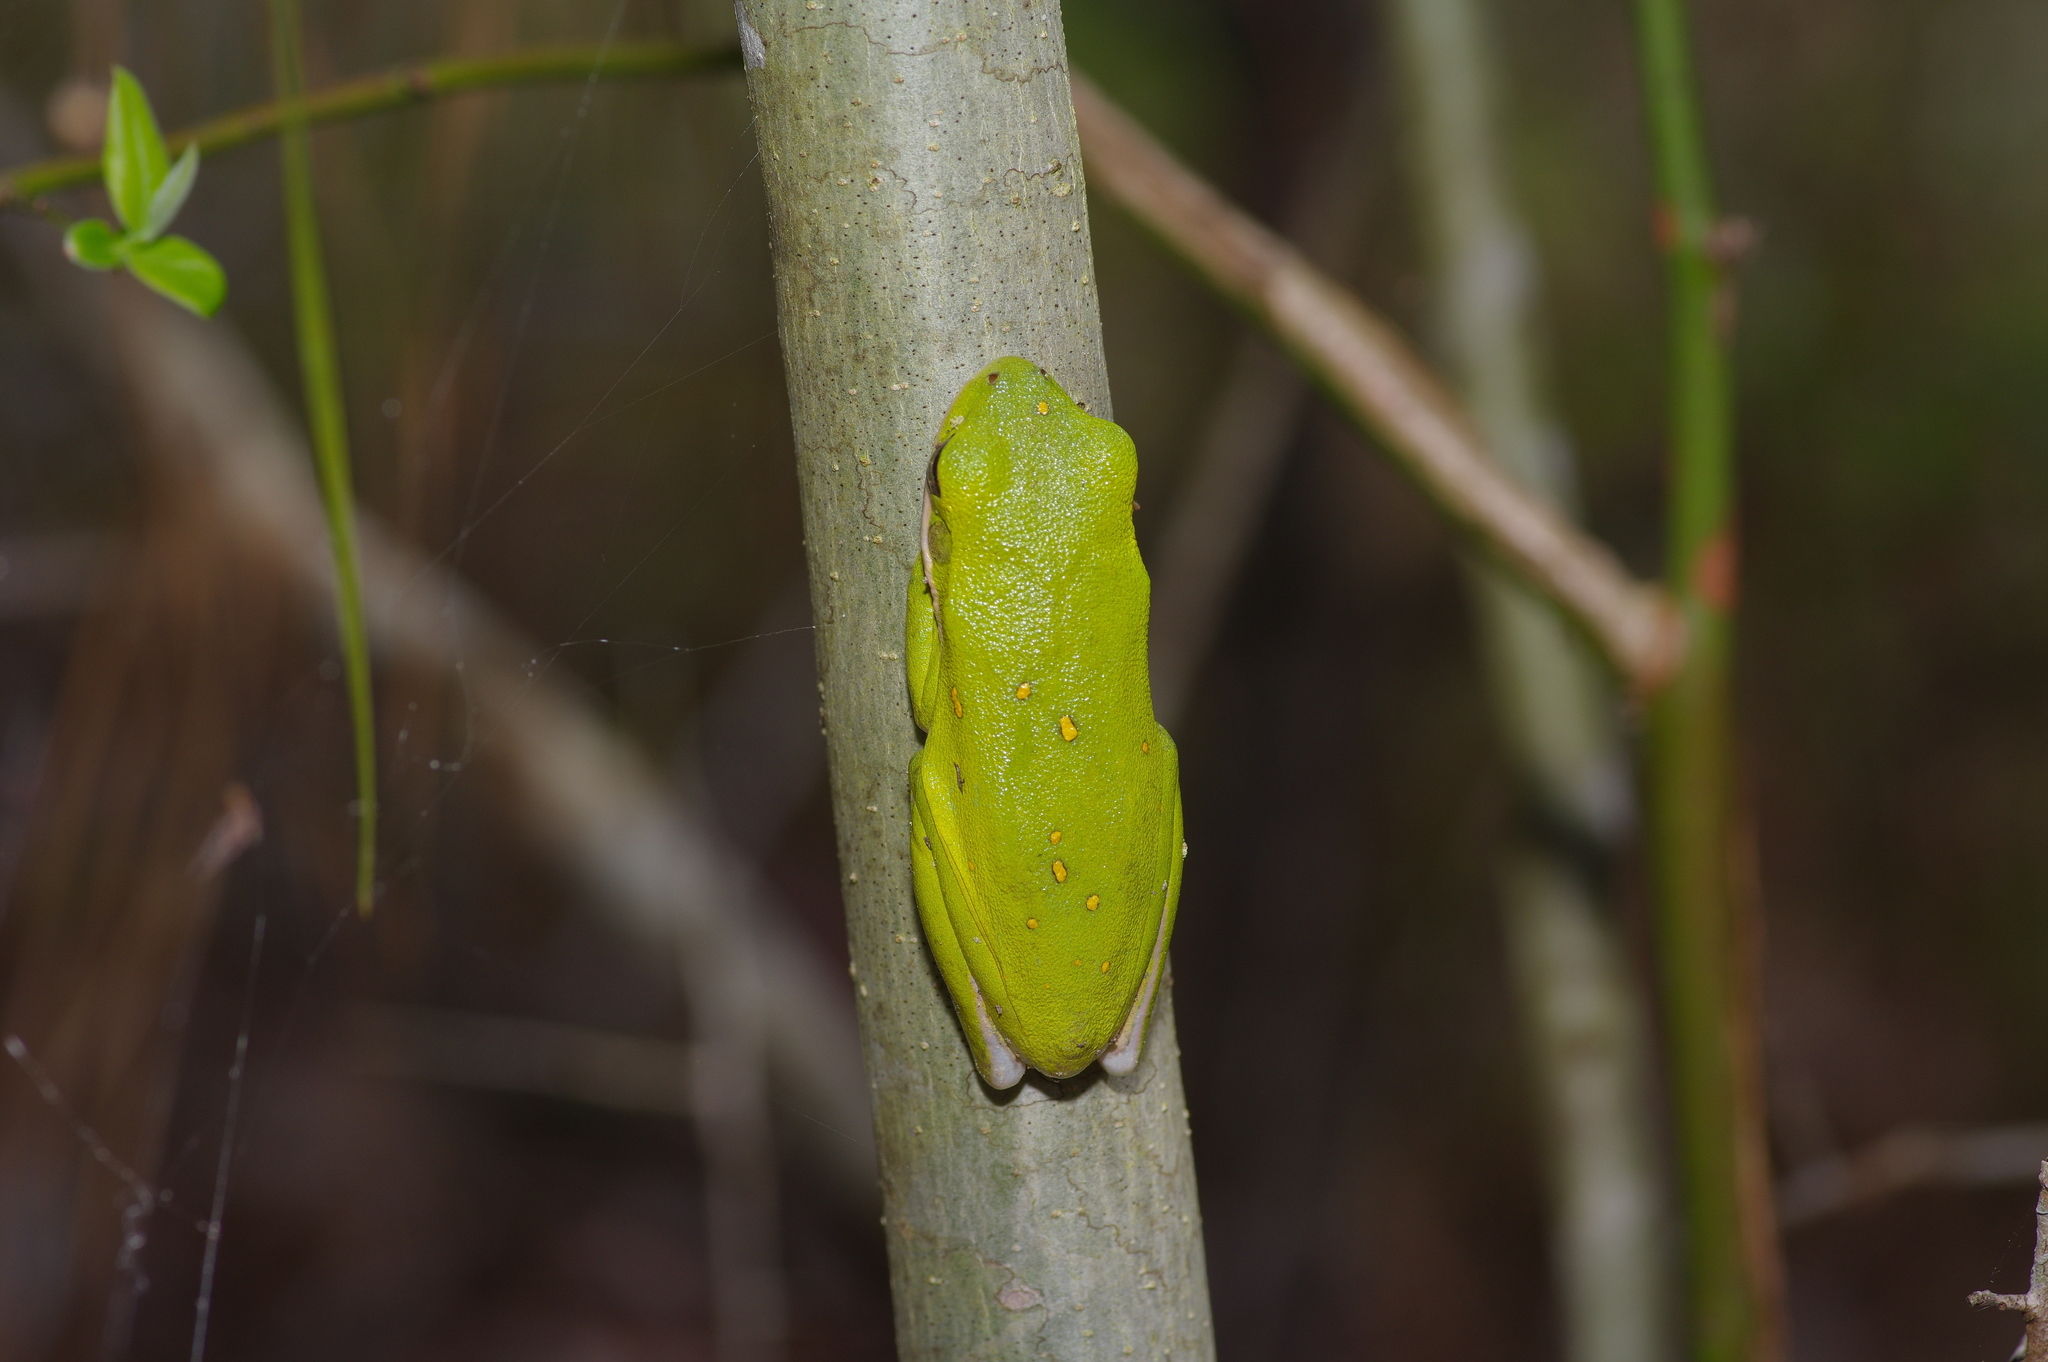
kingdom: Animalia
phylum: Chordata
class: Amphibia
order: Anura
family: Hylidae
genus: Dryophytes
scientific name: Dryophytes cinereus
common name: Green treefrog
